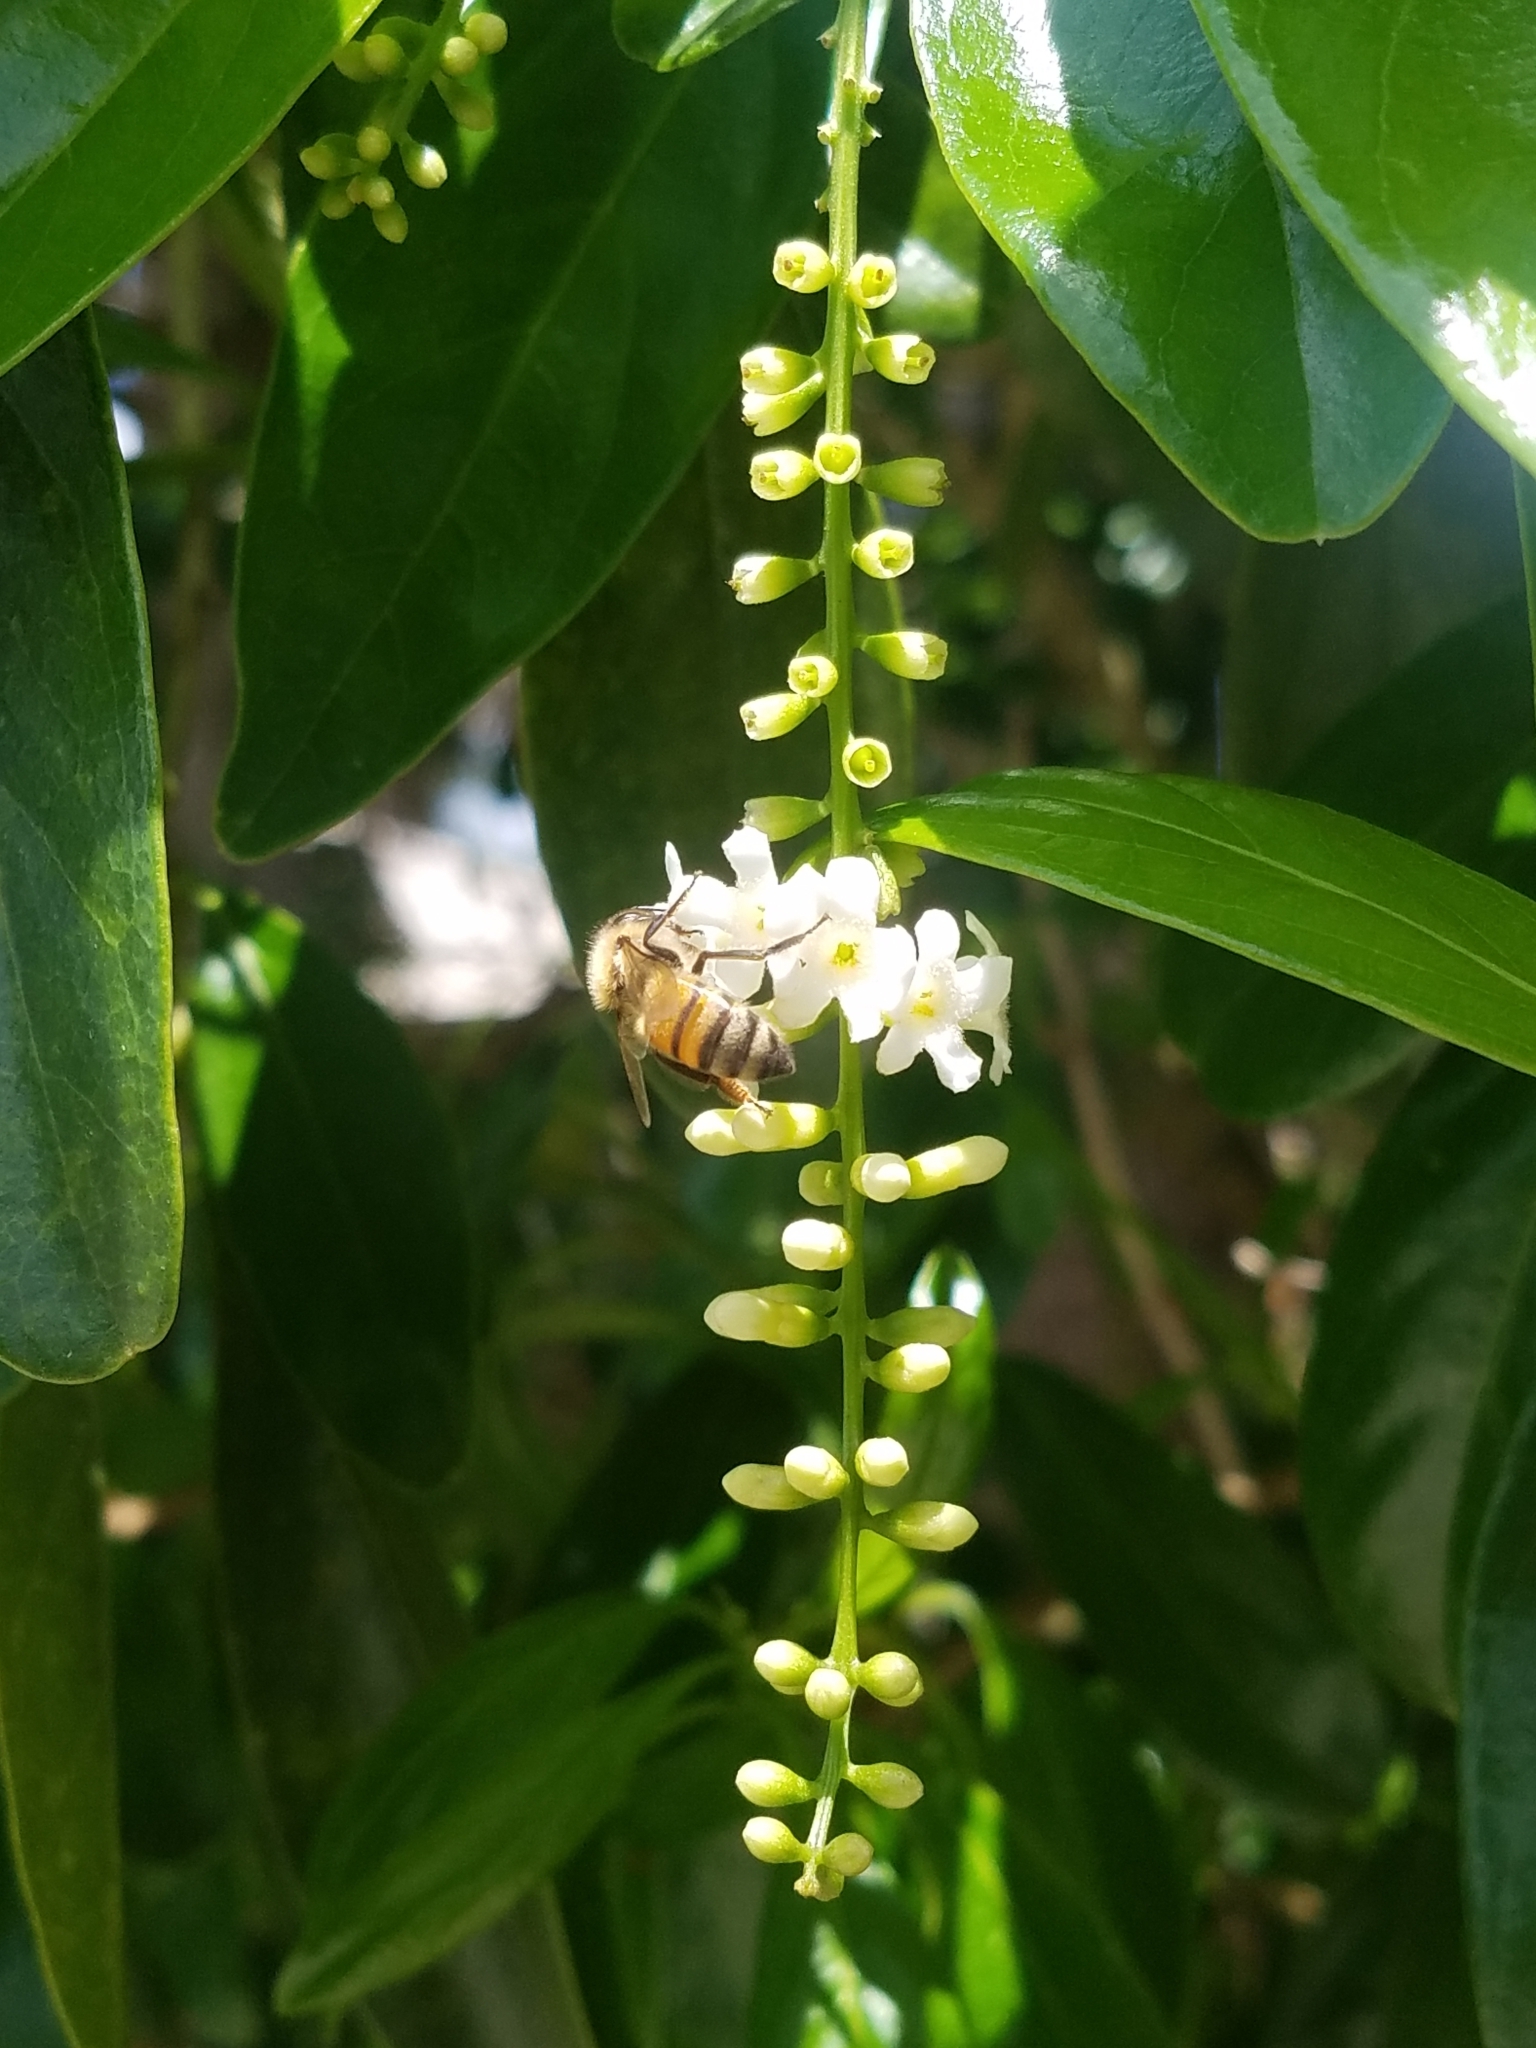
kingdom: Animalia
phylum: Arthropoda
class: Insecta
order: Hymenoptera
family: Apidae
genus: Apis
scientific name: Apis mellifera
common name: Honey bee
